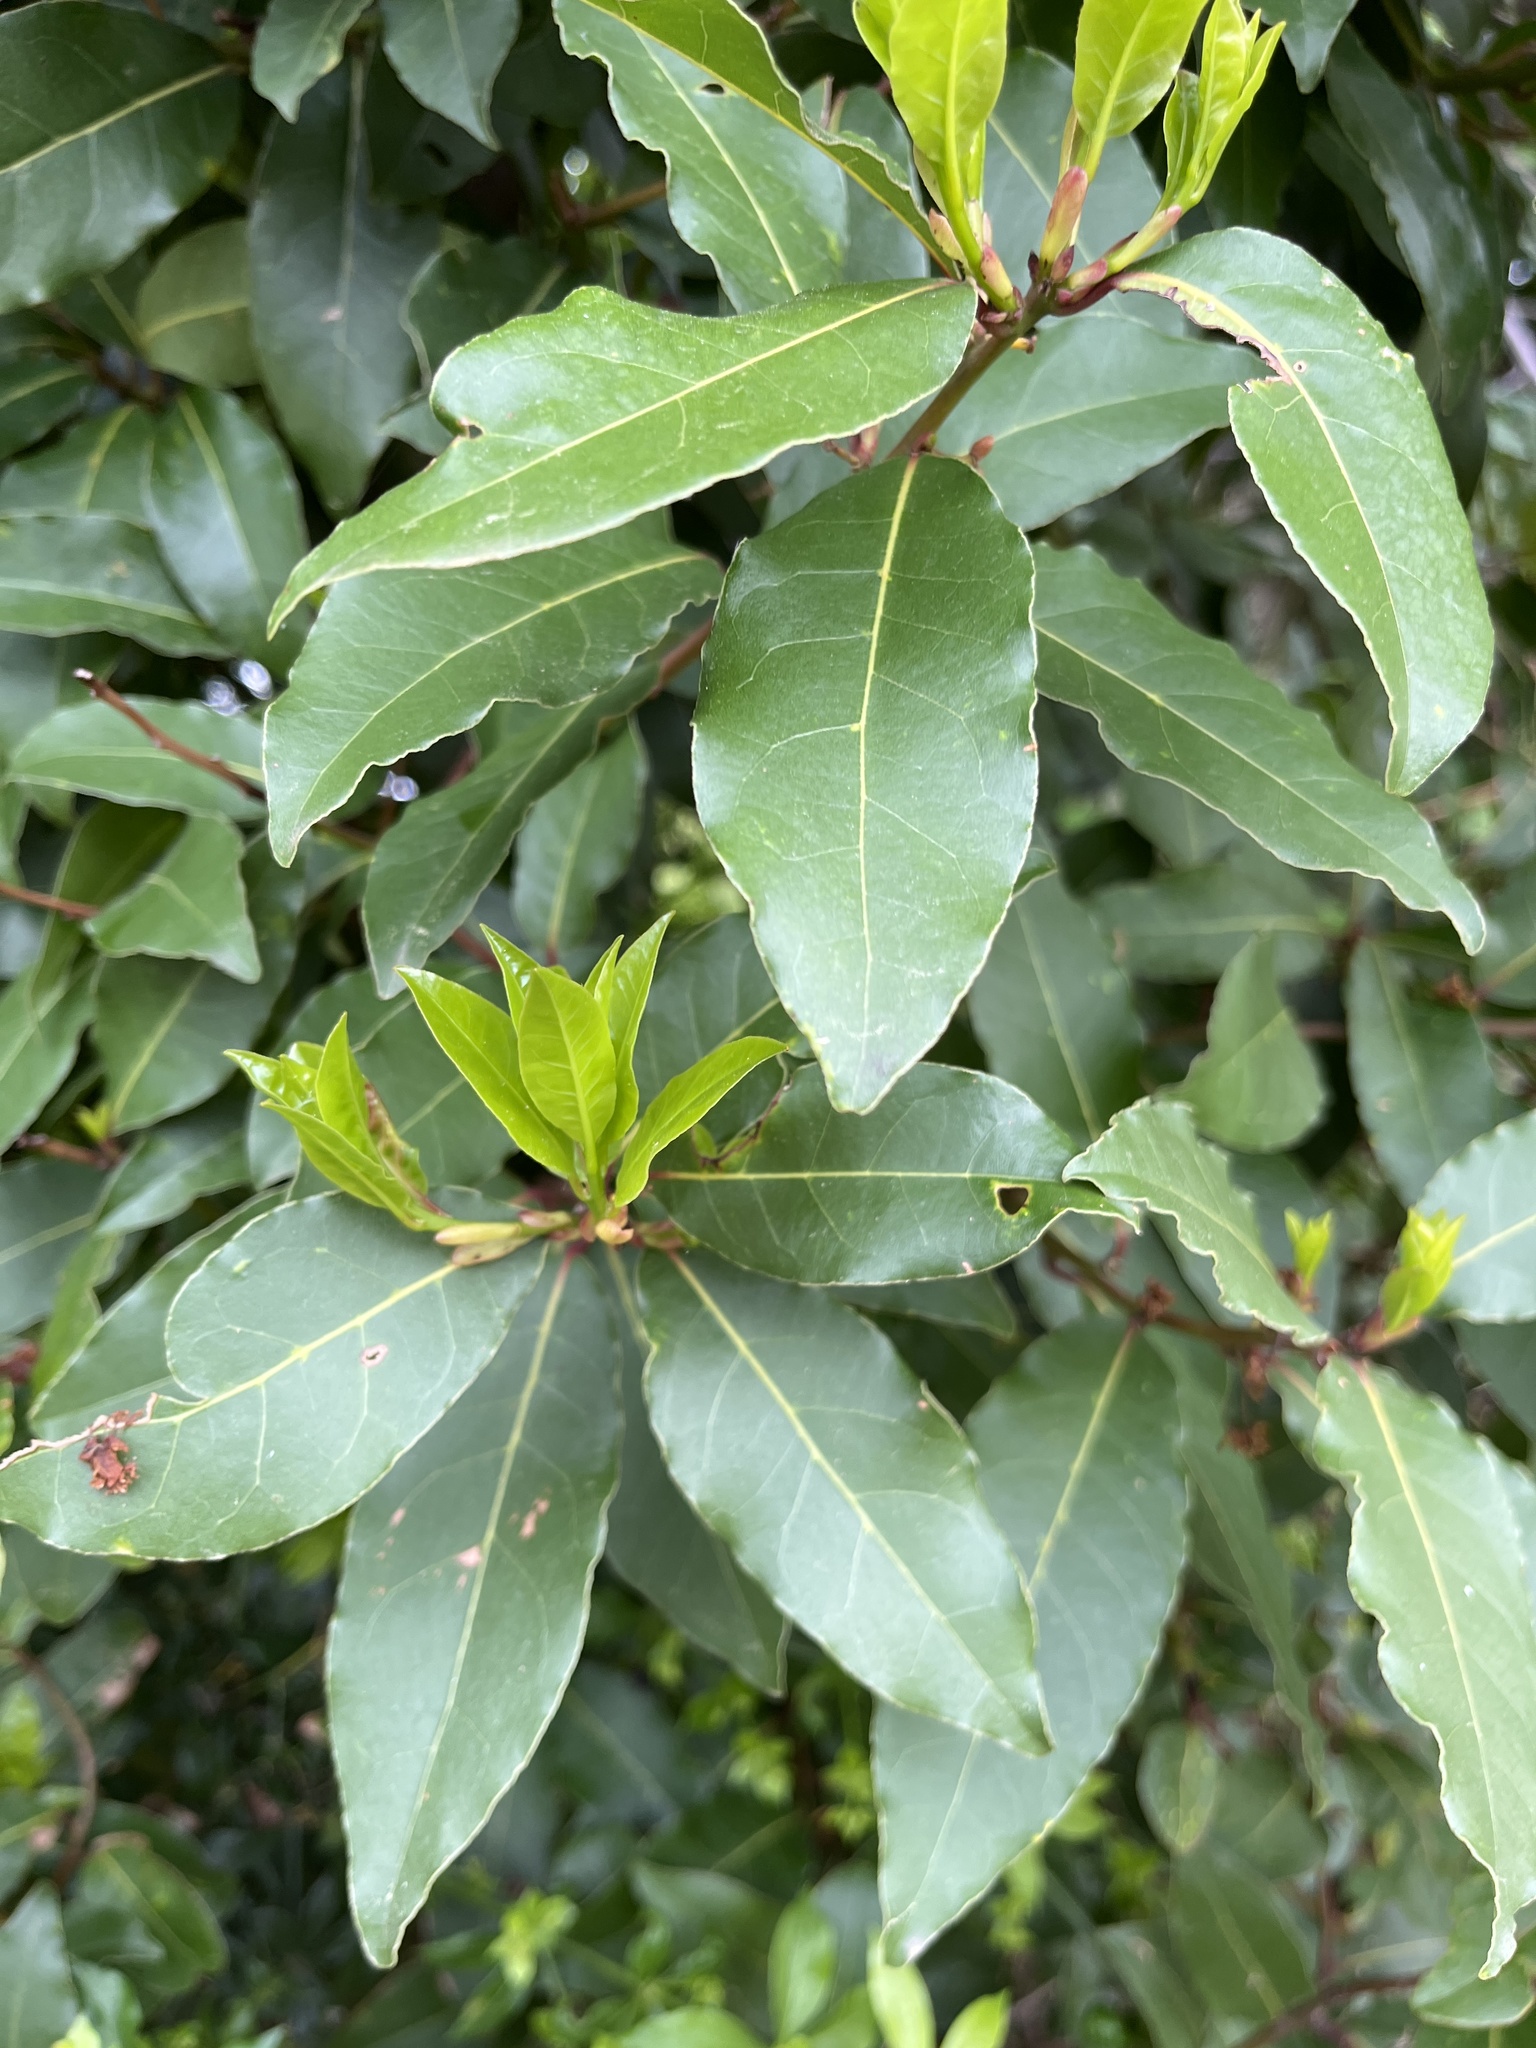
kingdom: Plantae
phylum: Tracheophyta
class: Magnoliopsida
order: Laurales
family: Lauraceae
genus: Laurus
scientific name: Laurus nobilis
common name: Bay
